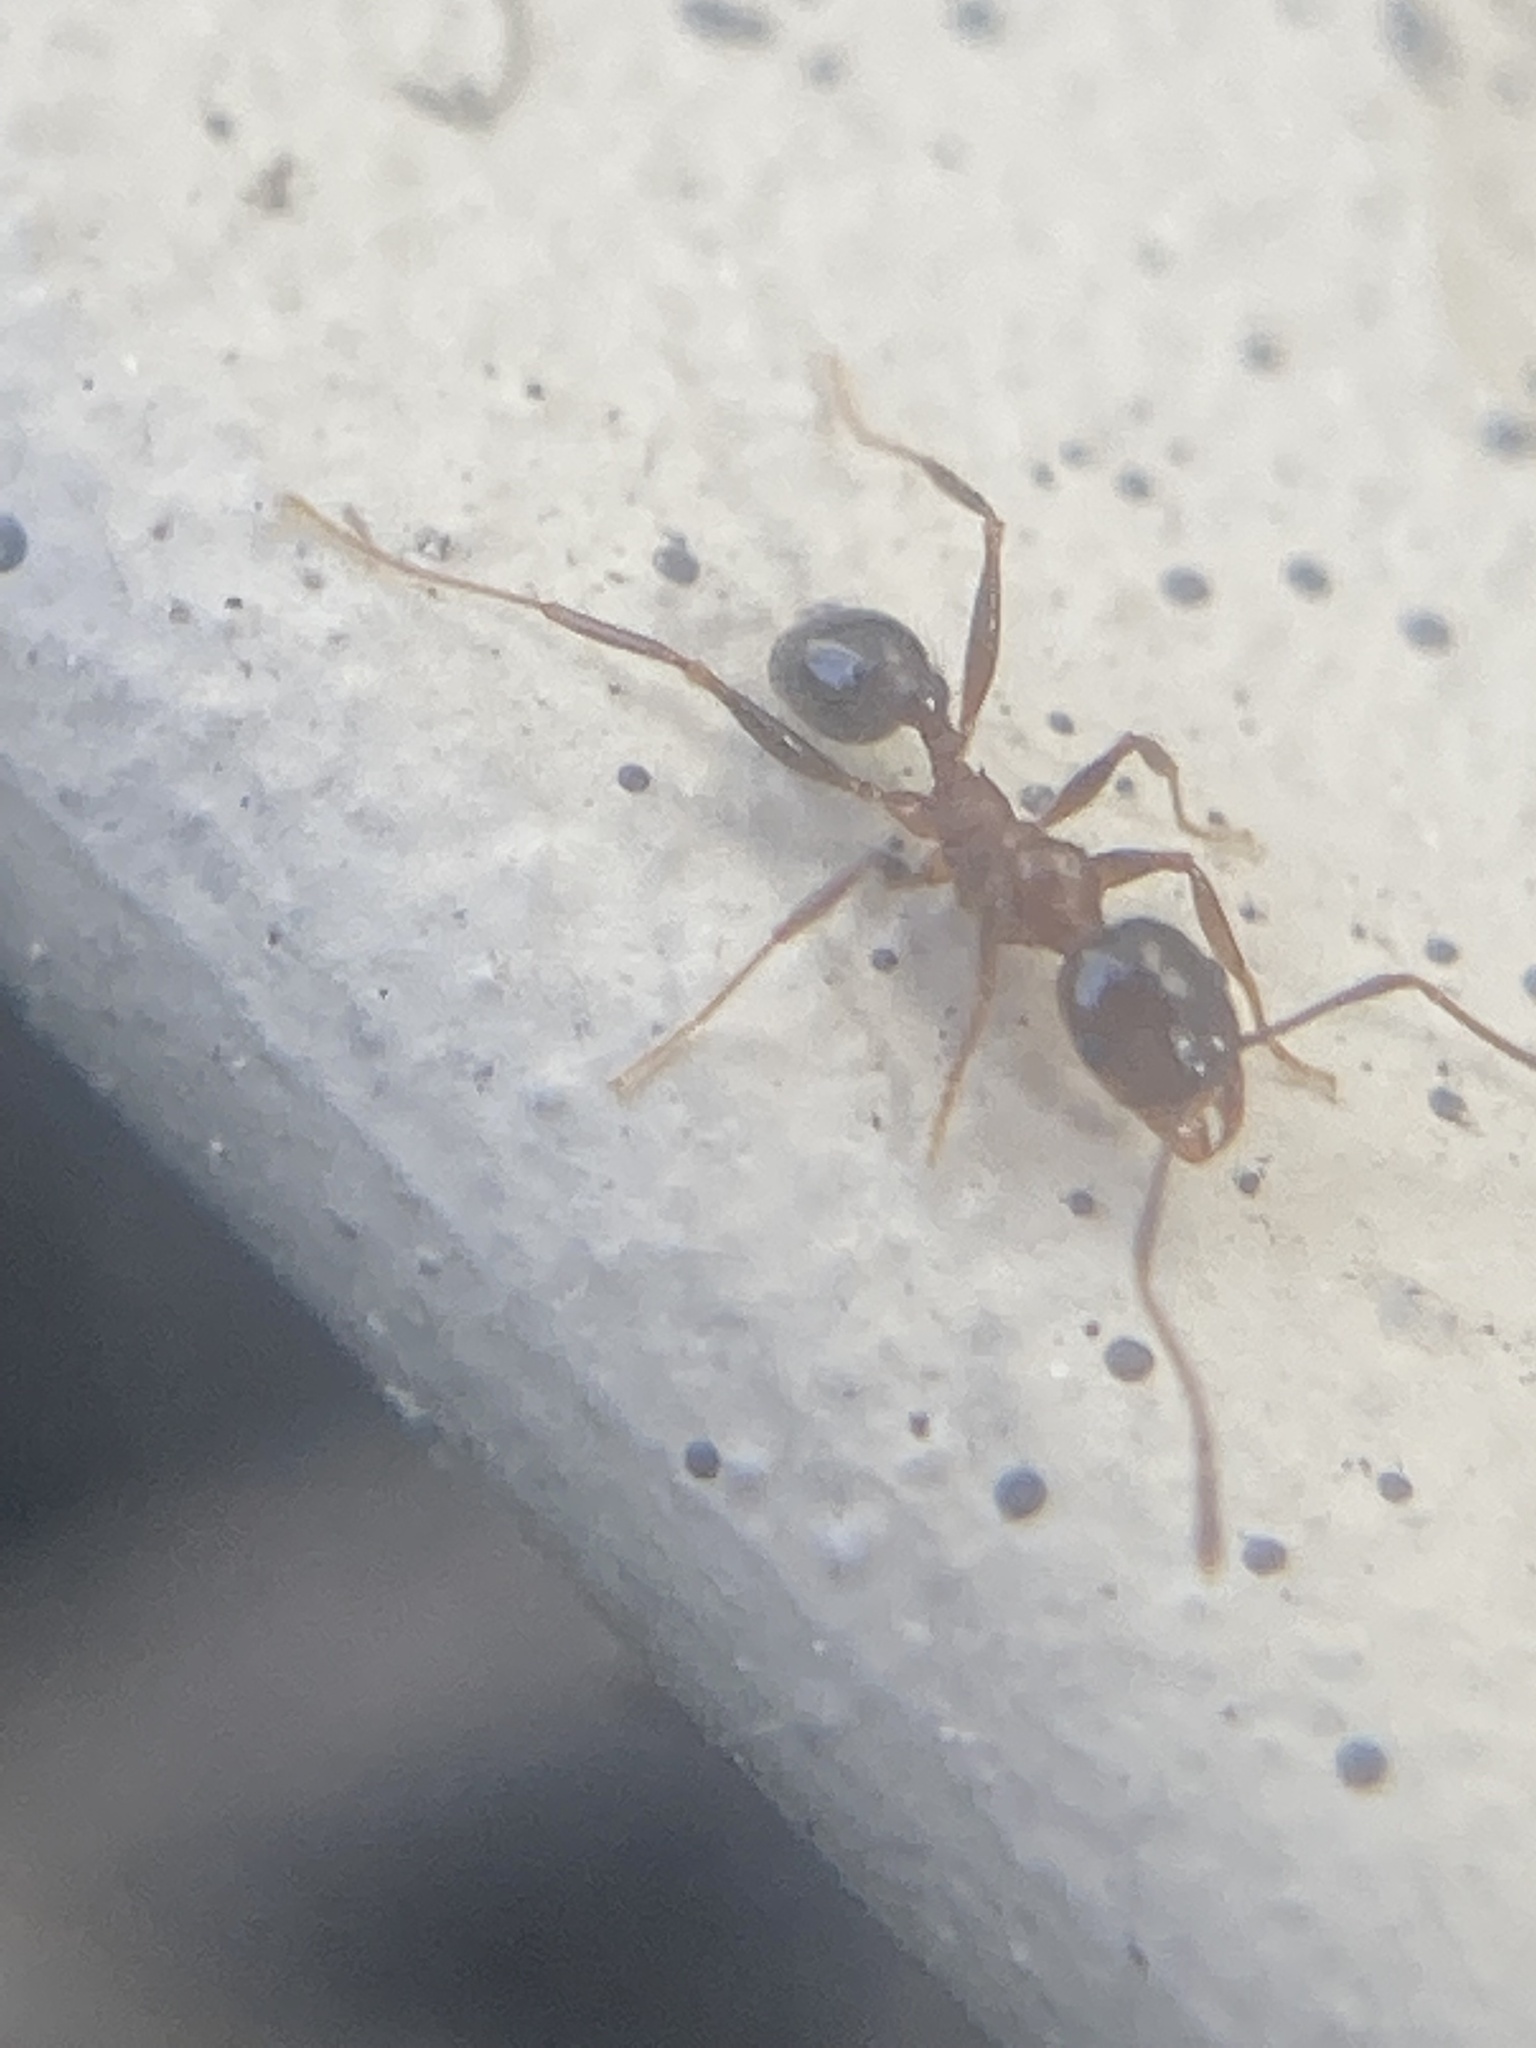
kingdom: Animalia
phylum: Arthropoda
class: Insecta
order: Hymenoptera
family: Formicidae
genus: Pheidole
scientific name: Pheidole dentata
